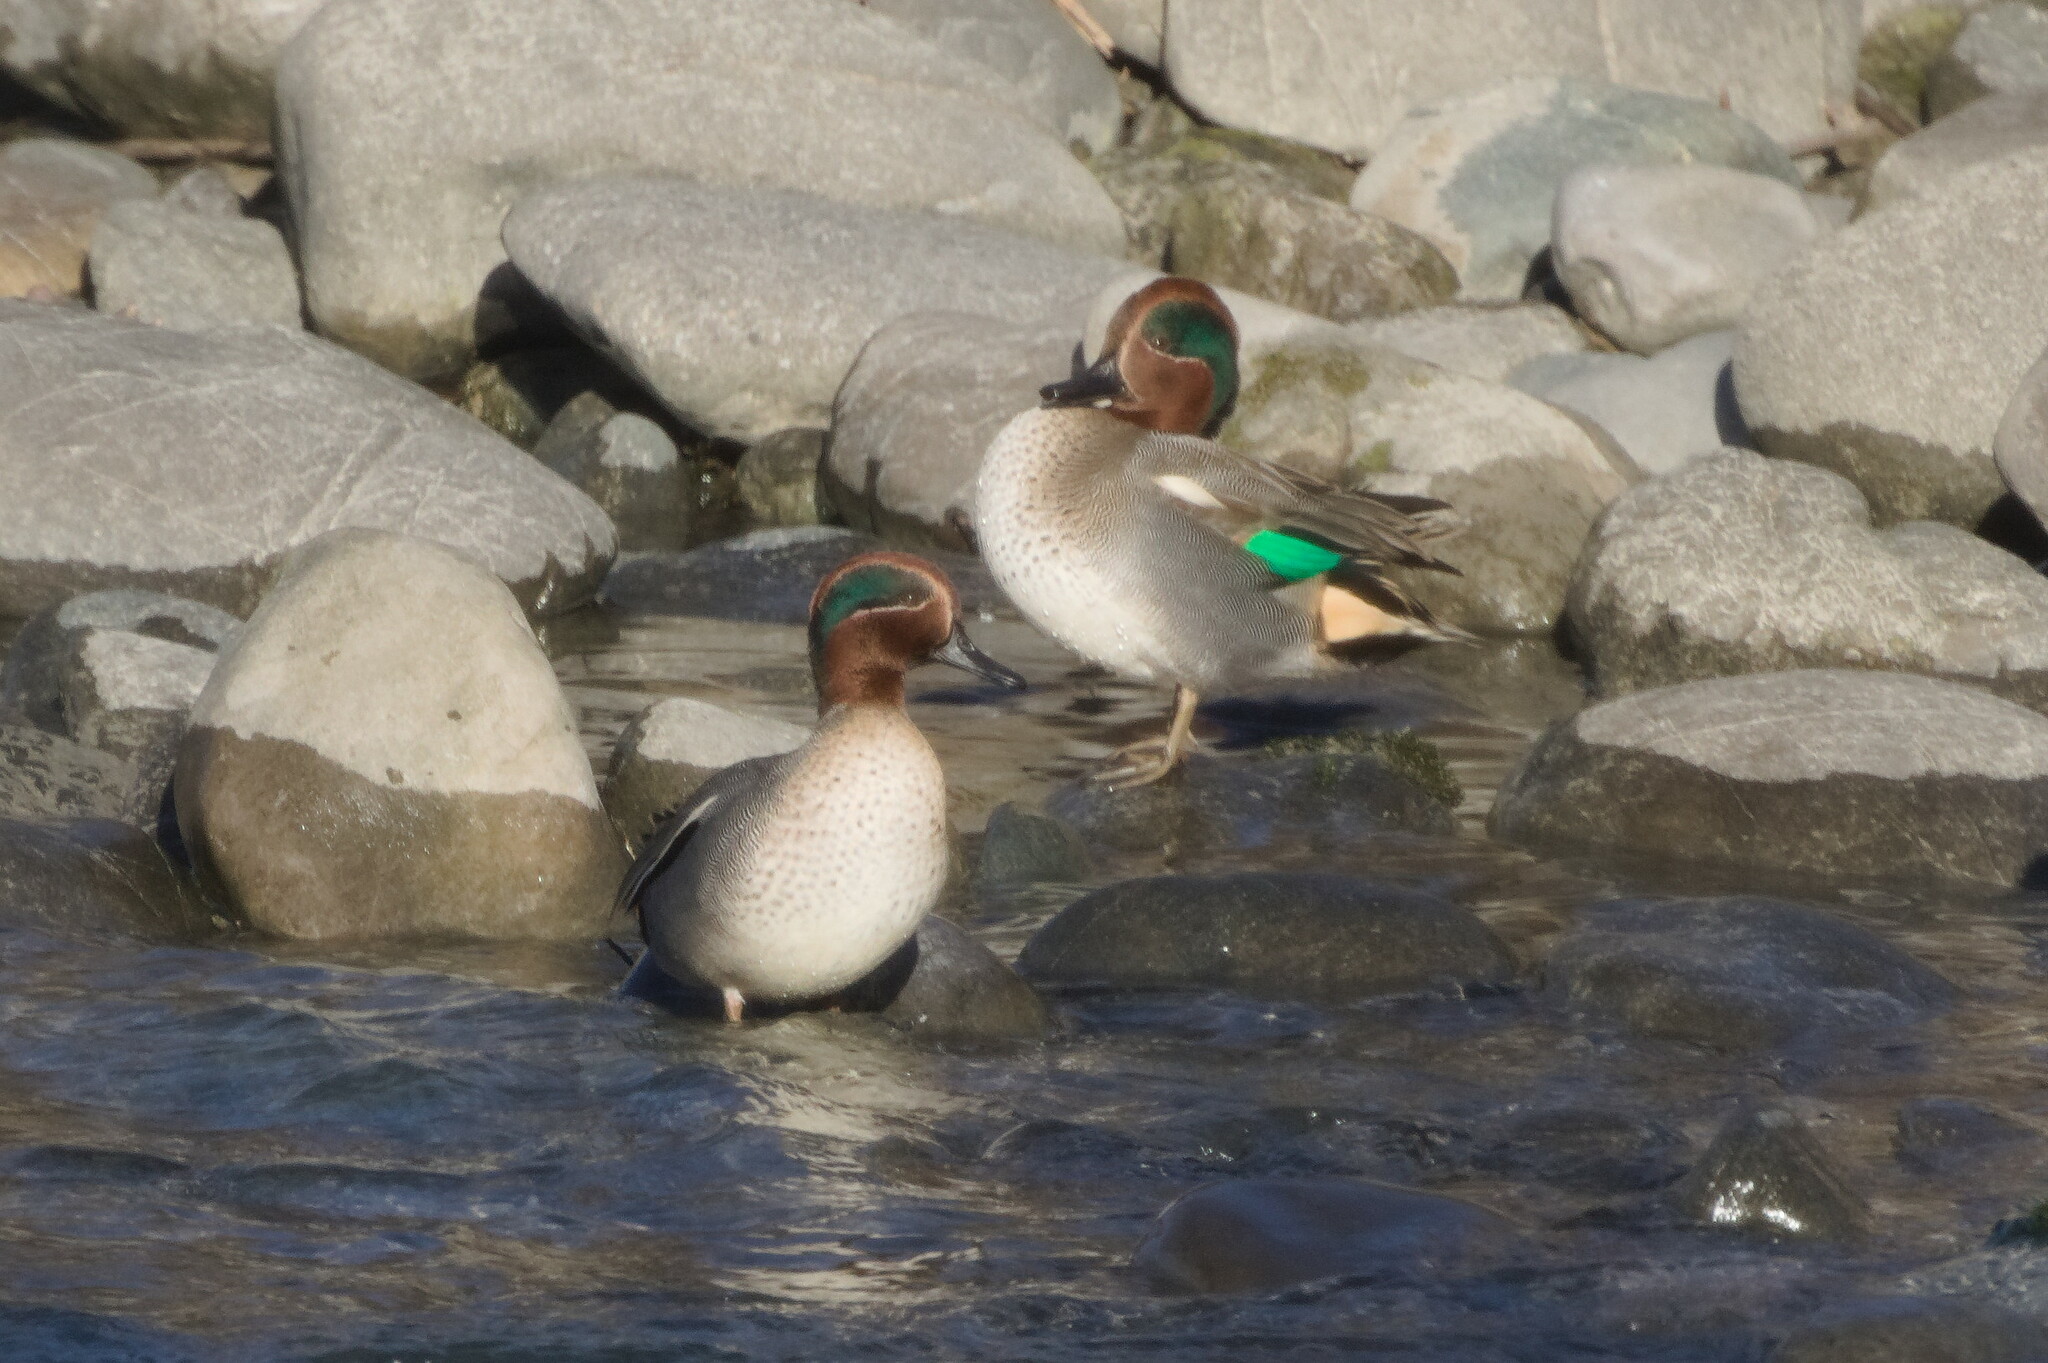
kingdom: Animalia
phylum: Chordata
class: Aves
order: Anseriformes
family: Anatidae
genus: Anas
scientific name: Anas crecca
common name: Eurasian teal
